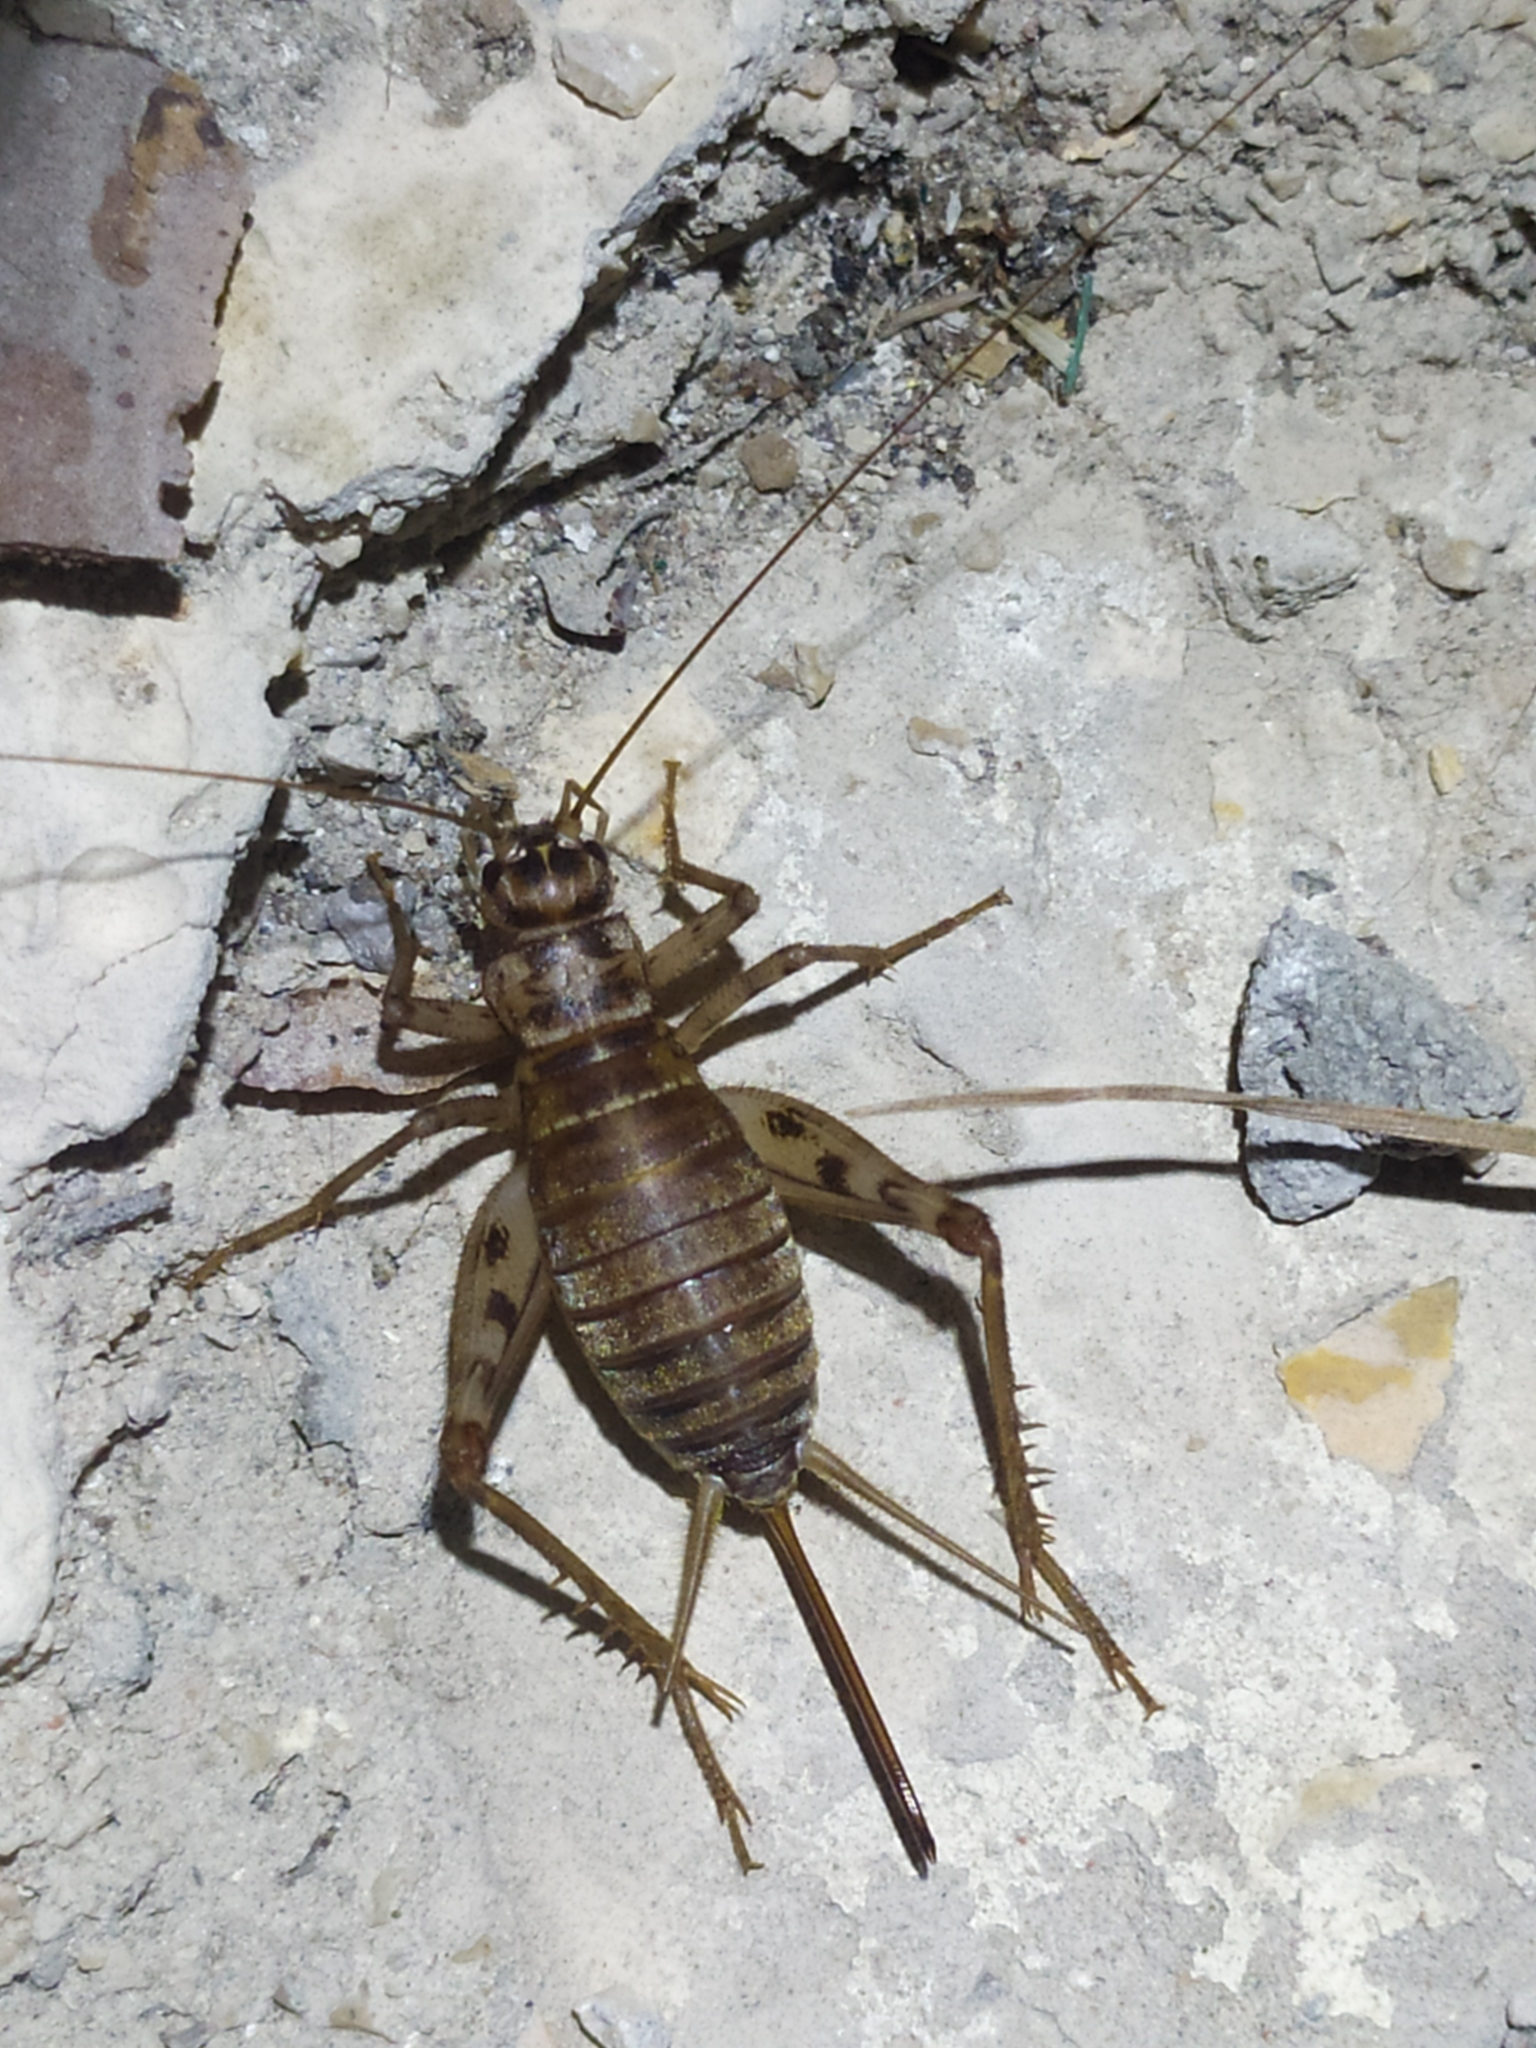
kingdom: Animalia
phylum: Arthropoda
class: Insecta
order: Orthoptera
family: Gryllidae
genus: Gryllomorpha
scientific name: Gryllomorpha dalmatina
